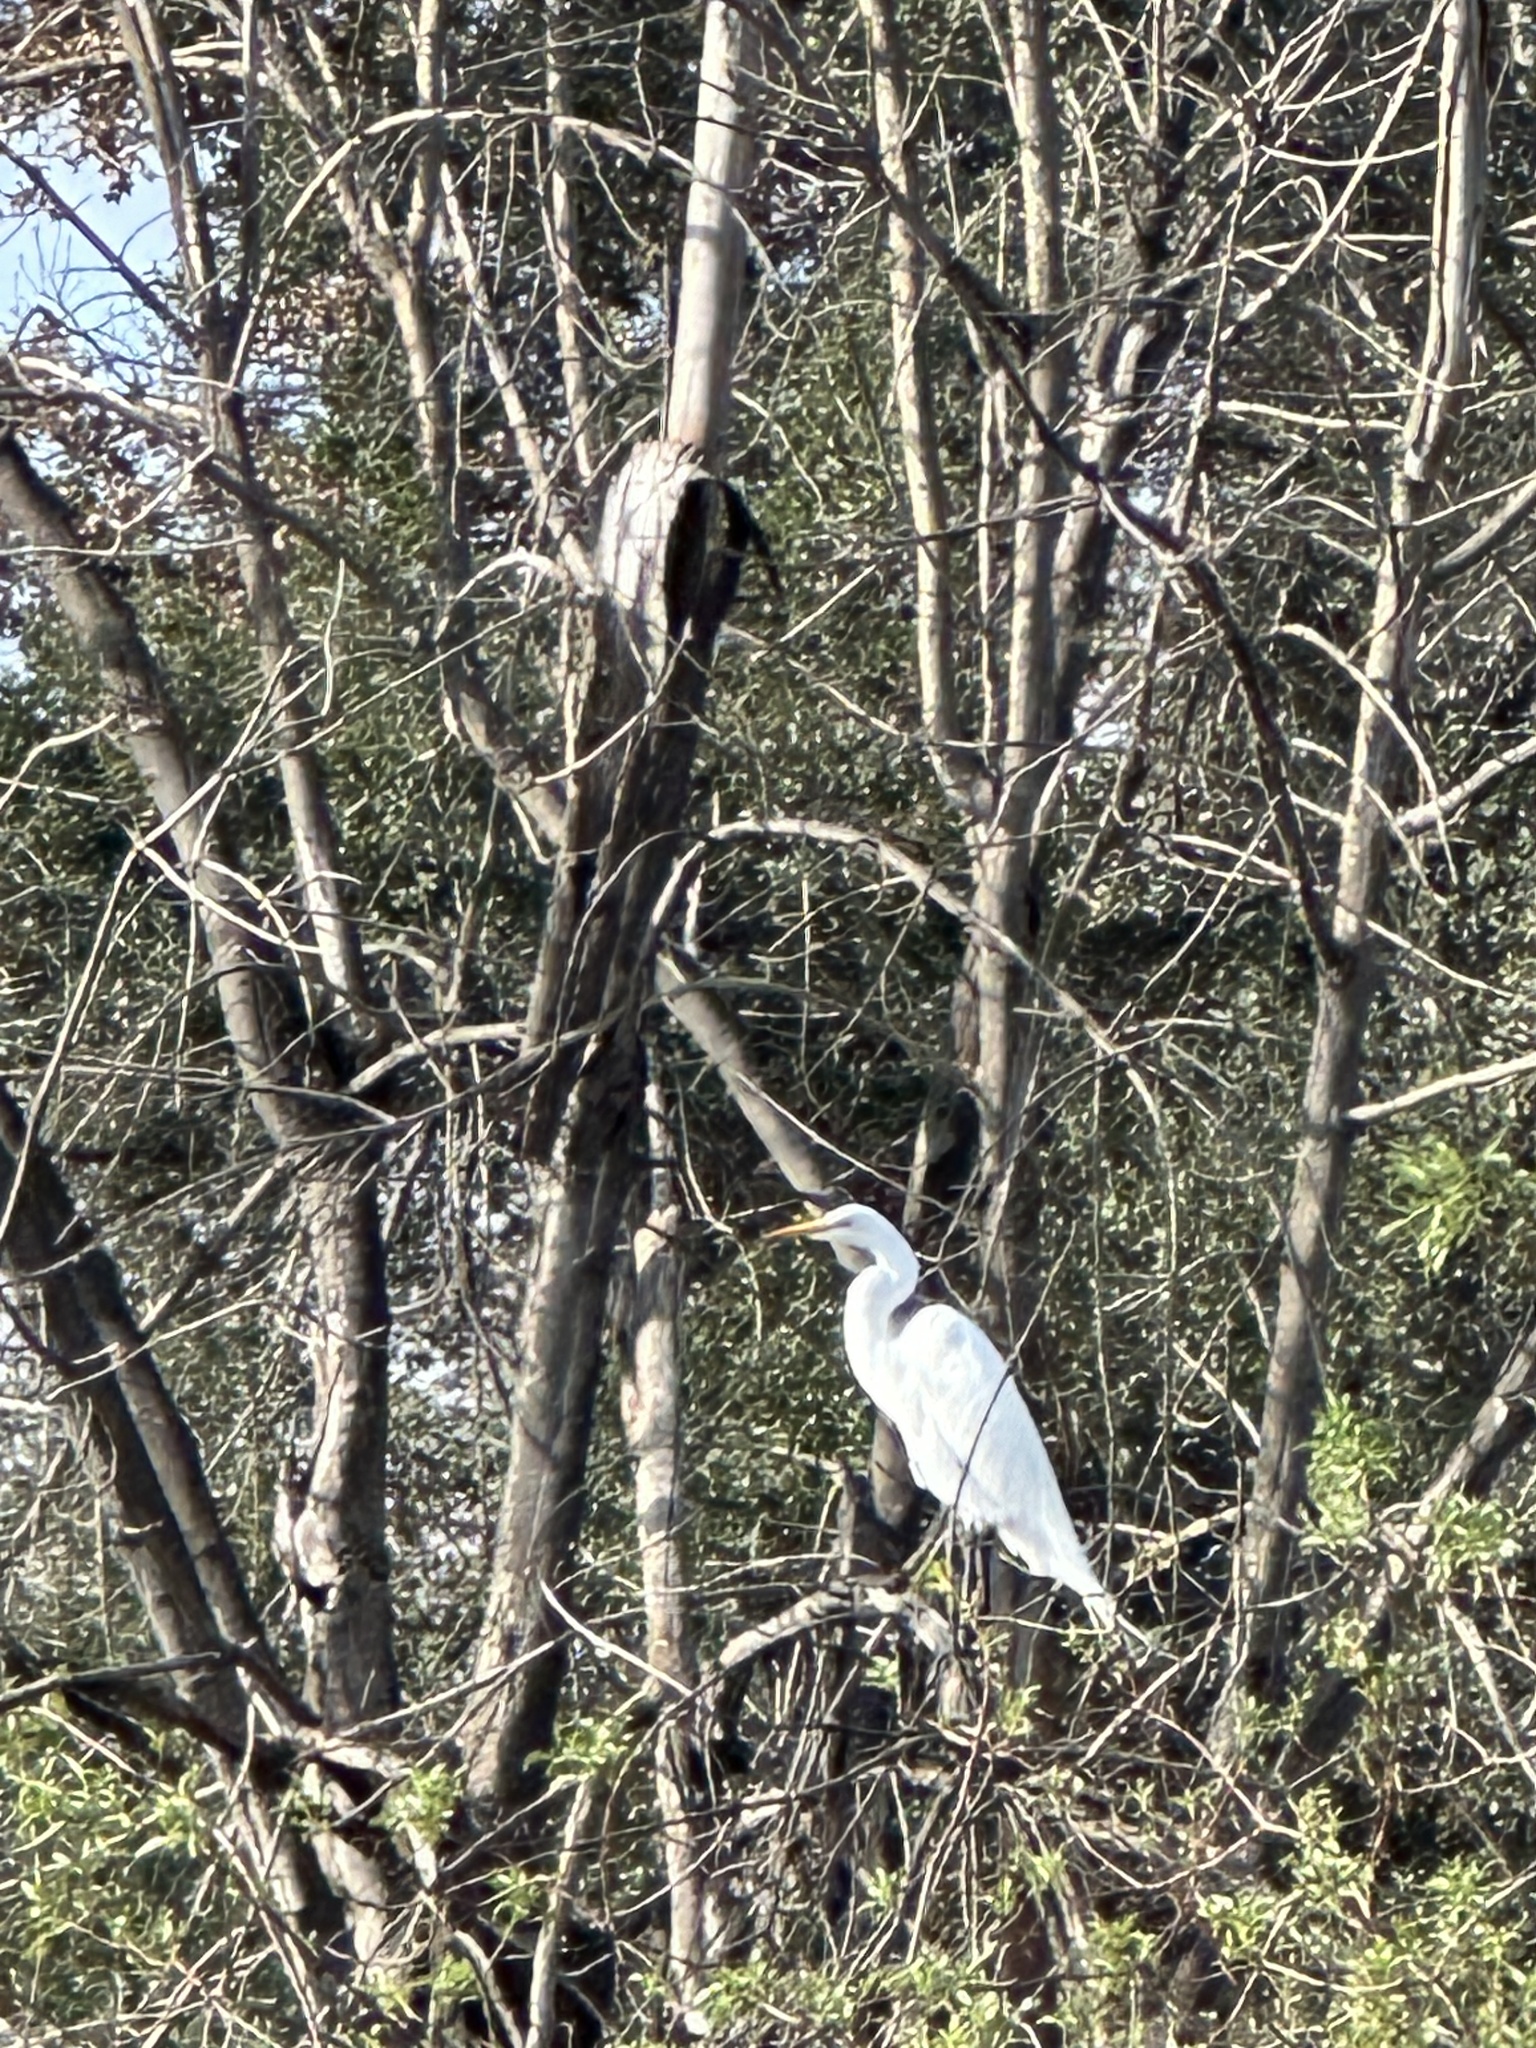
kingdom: Animalia
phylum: Chordata
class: Aves
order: Pelecaniformes
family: Ardeidae
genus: Ardea
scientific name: Ardea alba
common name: Great egret
